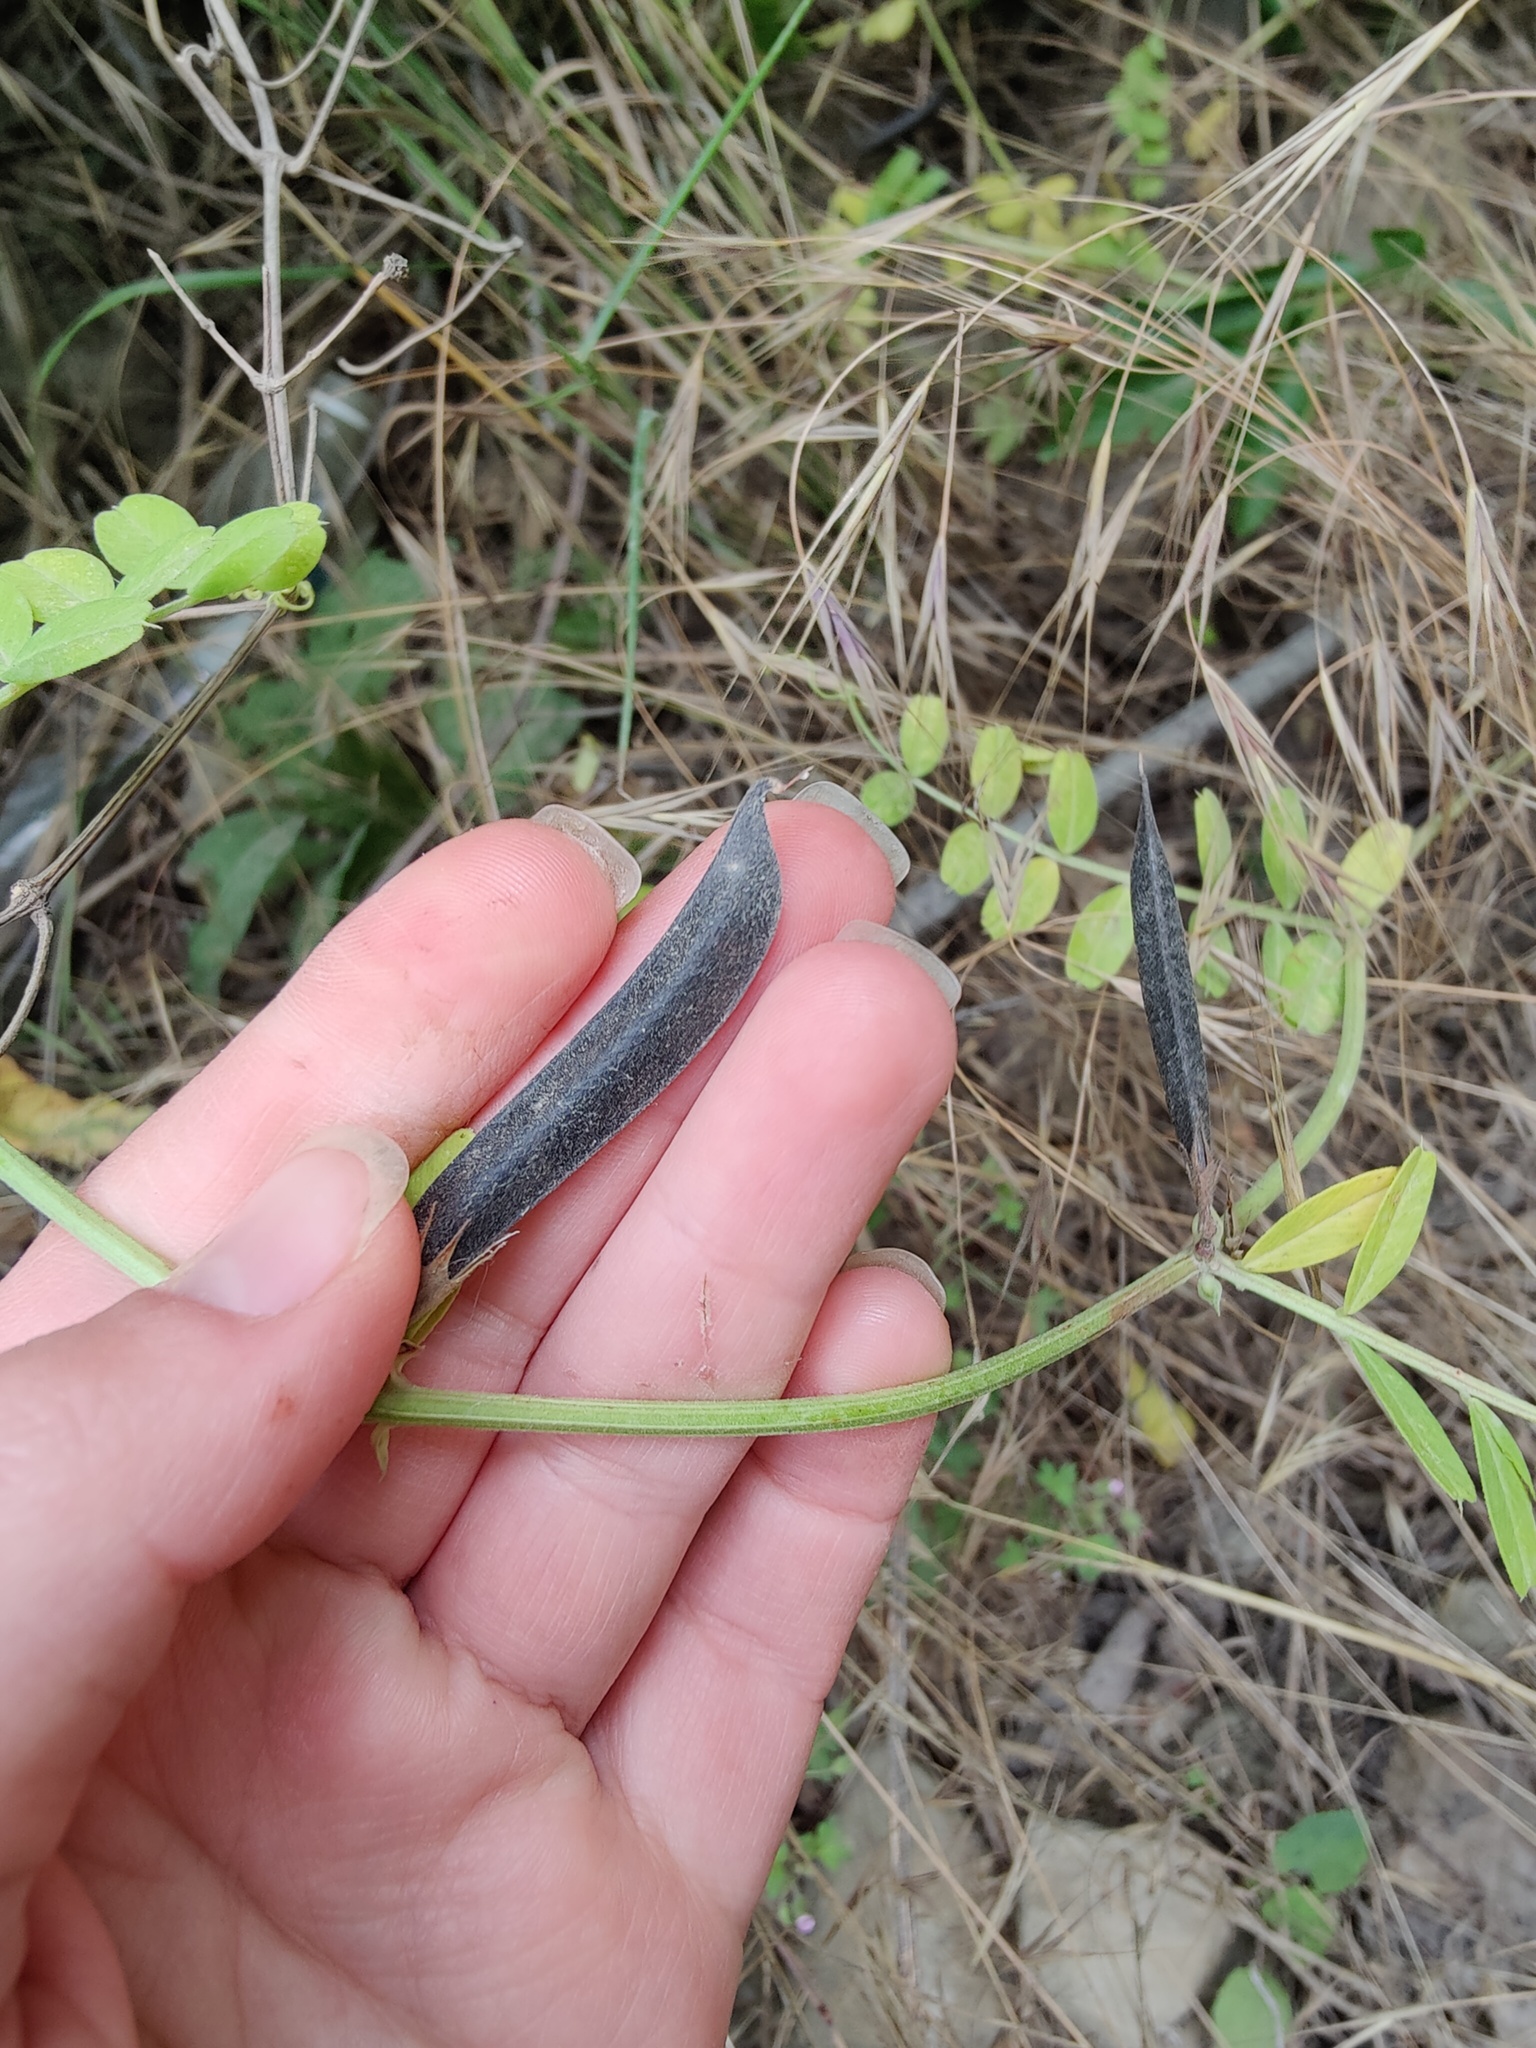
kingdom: Plantae
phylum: Tracheophyta
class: Magnoliopsida
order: Fabales
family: Fabaceae
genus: Vicia
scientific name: Vicia grandiflora
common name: Large yellow vetch
